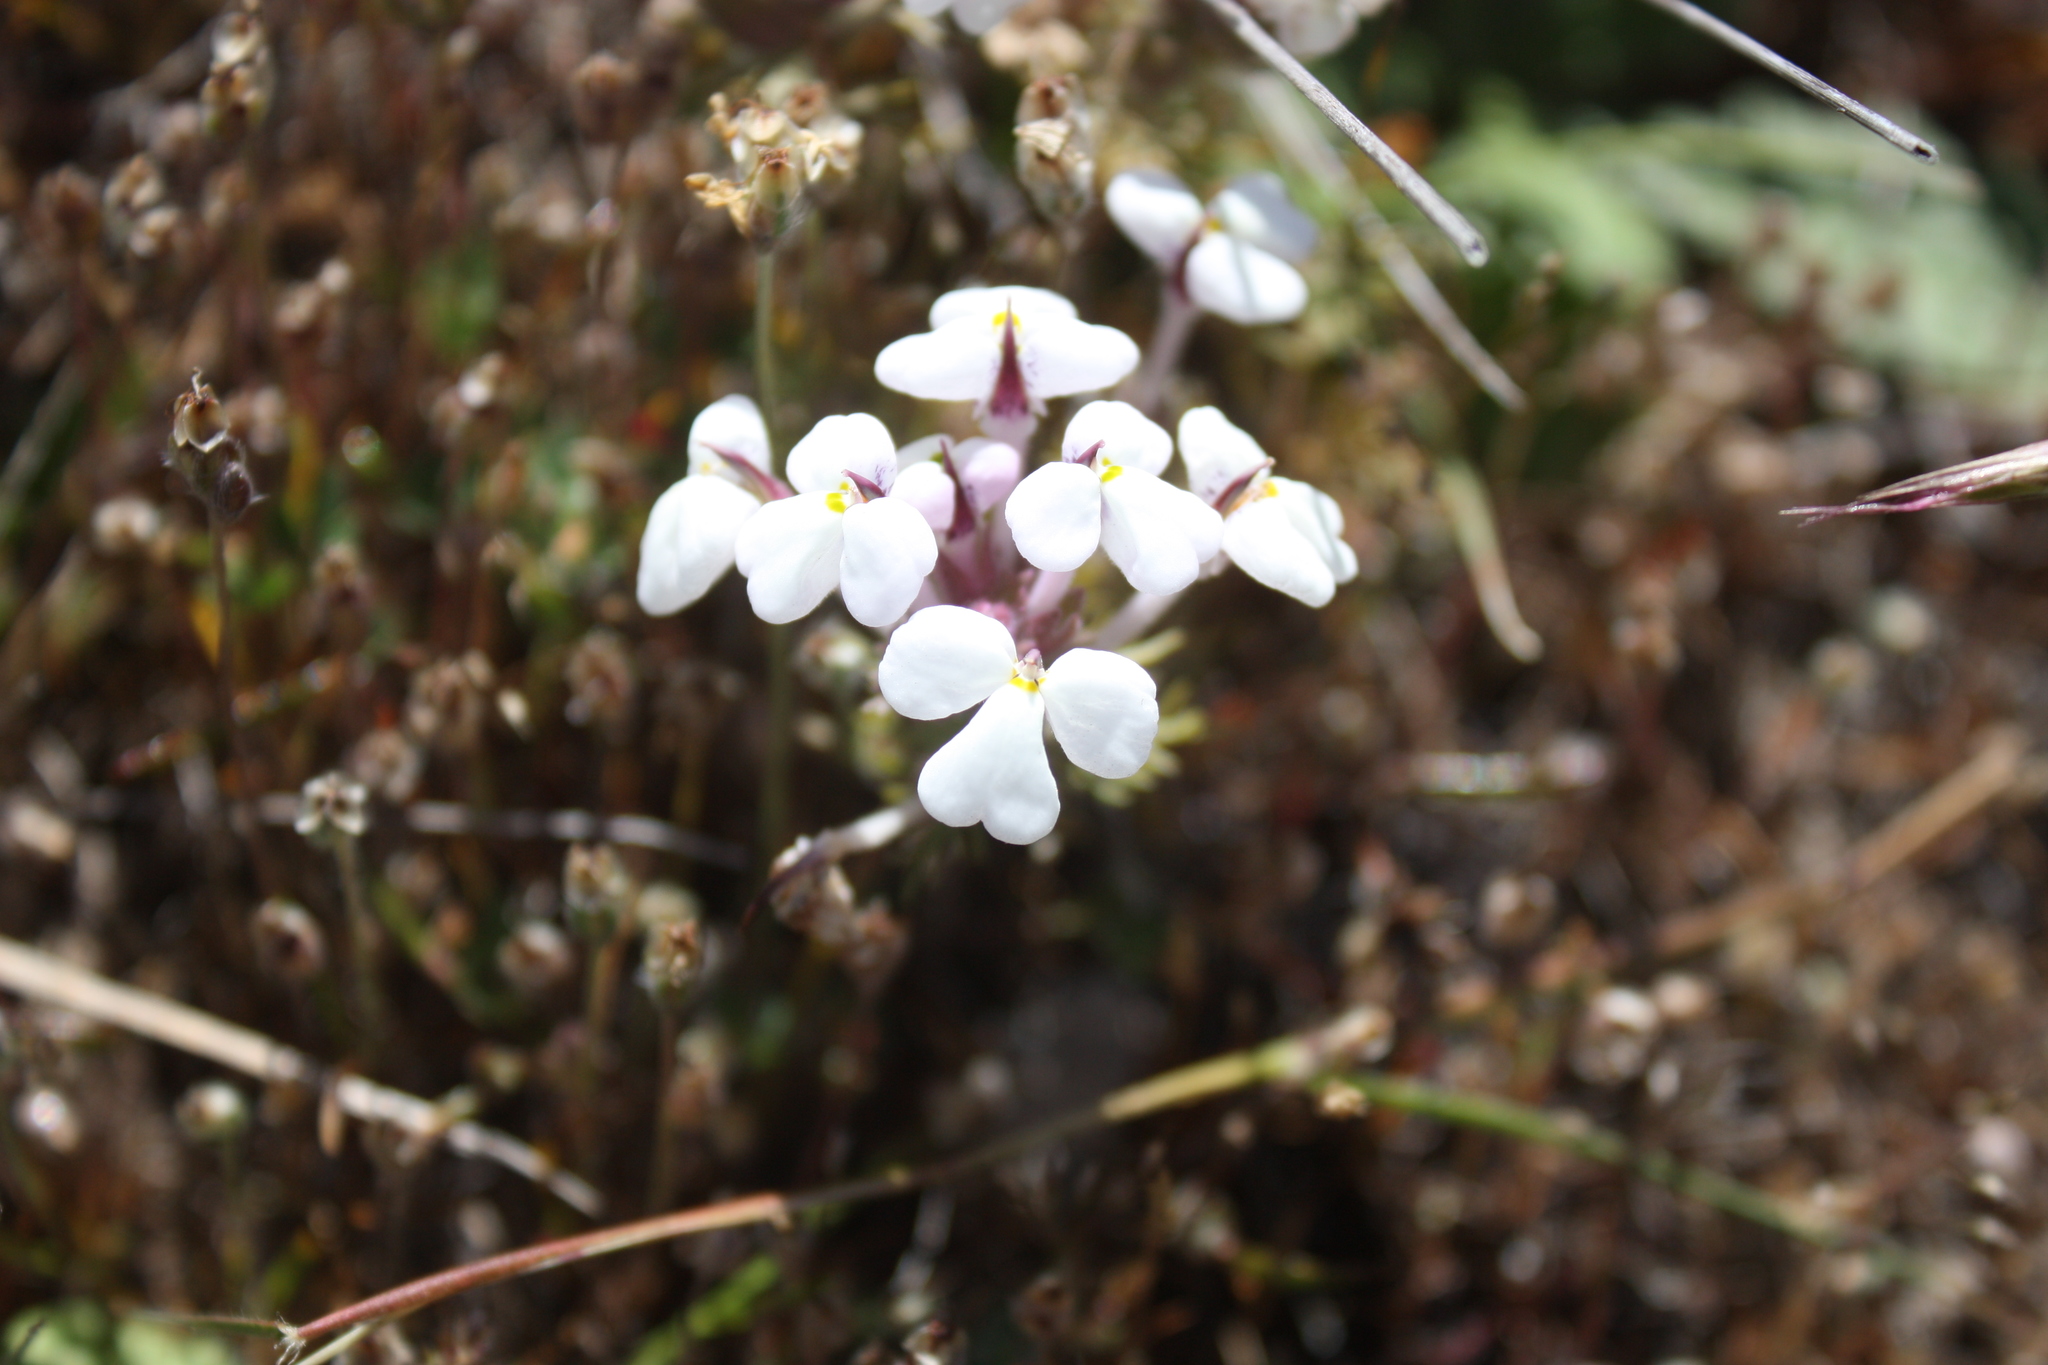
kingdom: Plantae
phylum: Tracheophyta
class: Magnoliopsida
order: Lamiales
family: Orobanchaceae
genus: Triphysaria
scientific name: Triphysaria eriantha
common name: Johnny-tuck
